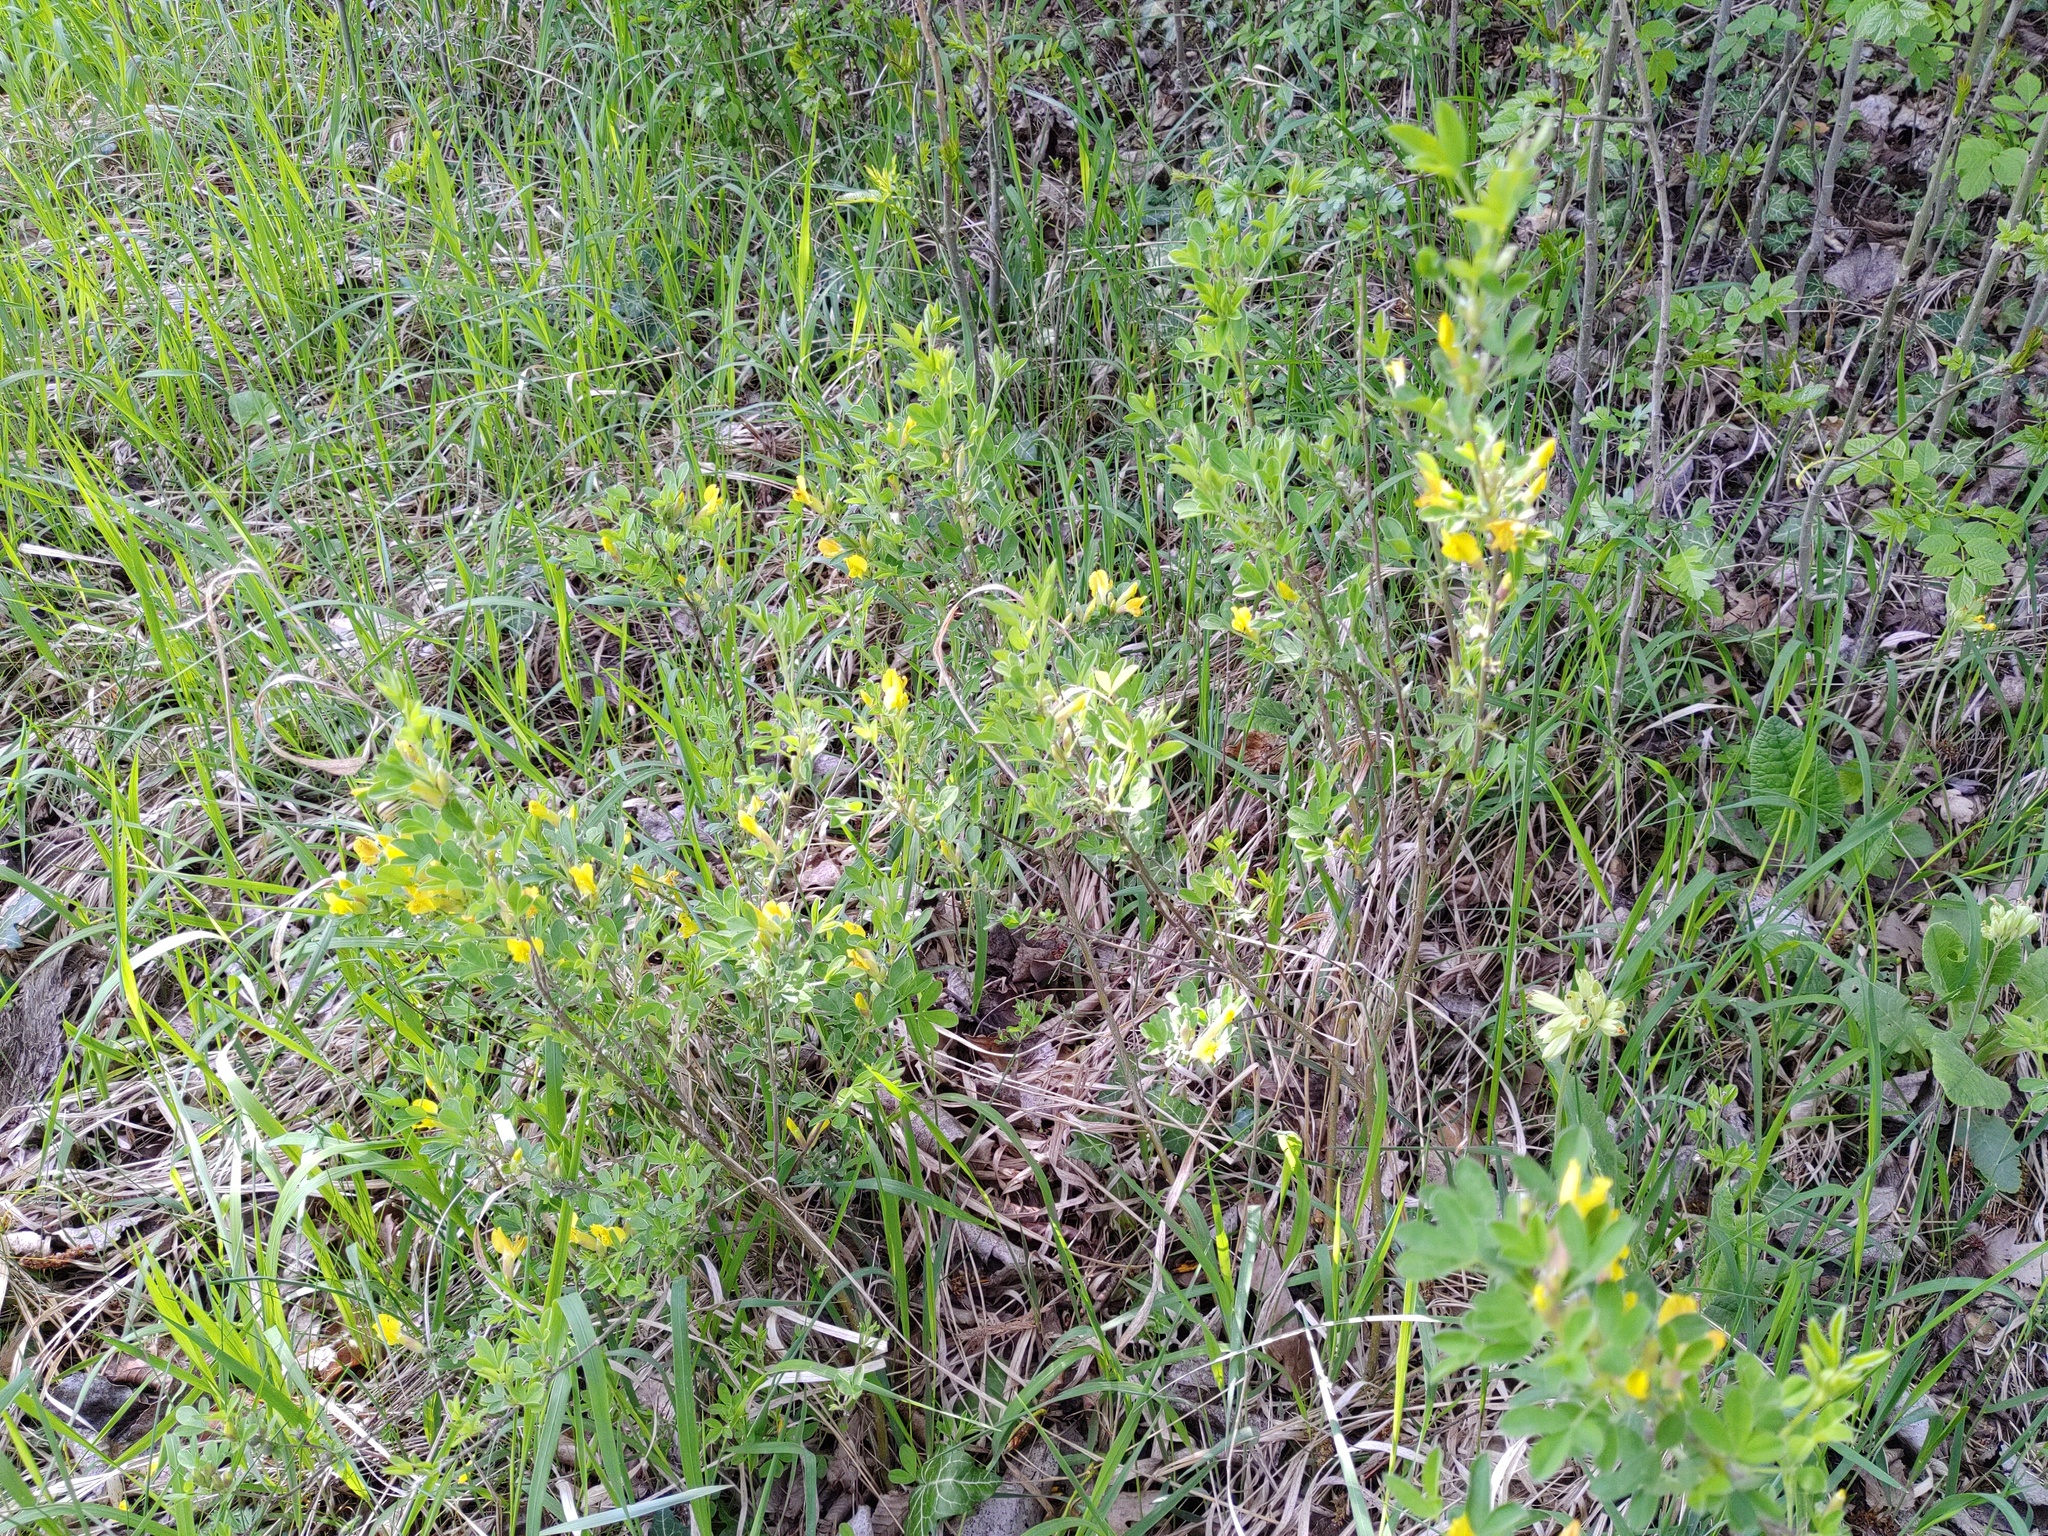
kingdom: Plantae
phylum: Tracheophyta
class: Magnoliopsida
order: Fabales
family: Fabaceae
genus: Chamaecytisus
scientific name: Chamaecytisus ratisbonensis
